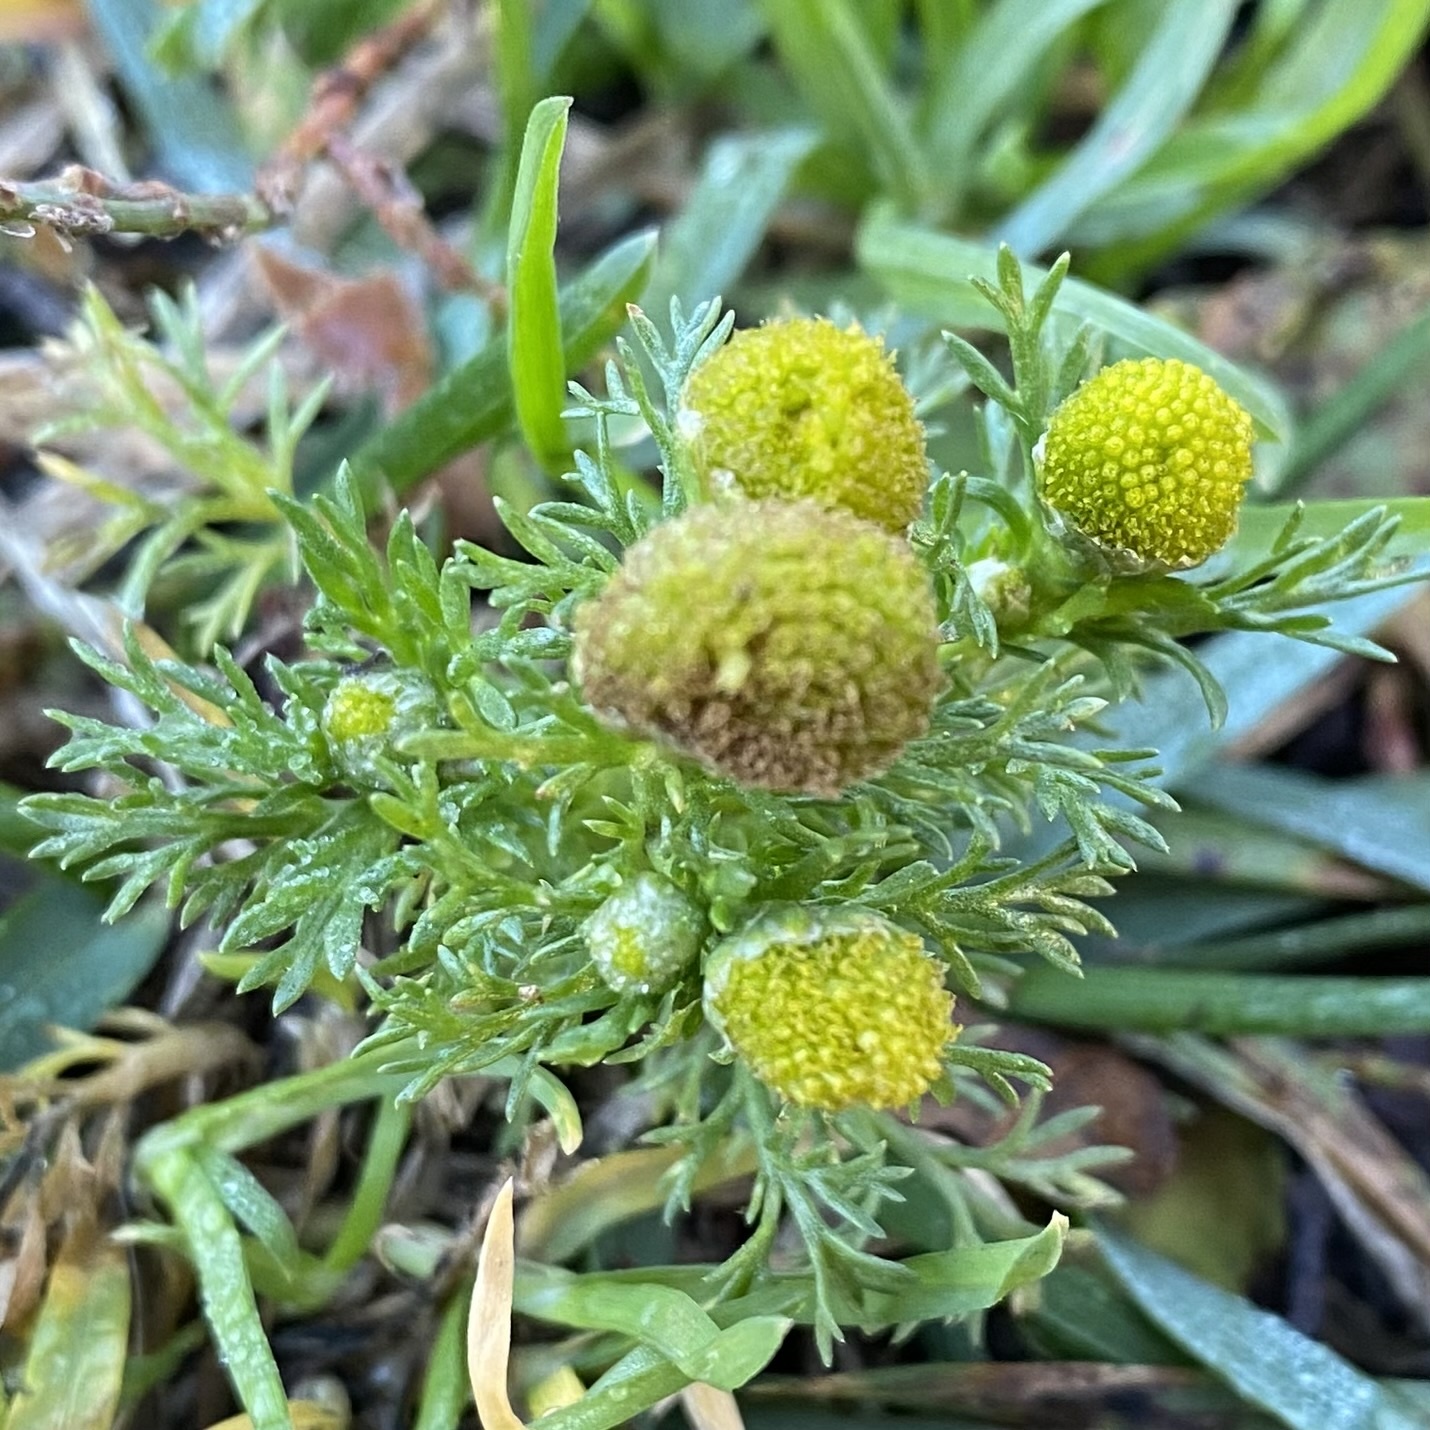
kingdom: Plantae
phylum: Tracheophyta
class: Magnoliopsida
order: Asterales
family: Asteraceae
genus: Matricaria
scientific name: Matricaria discoidea
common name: Disc mayweed
